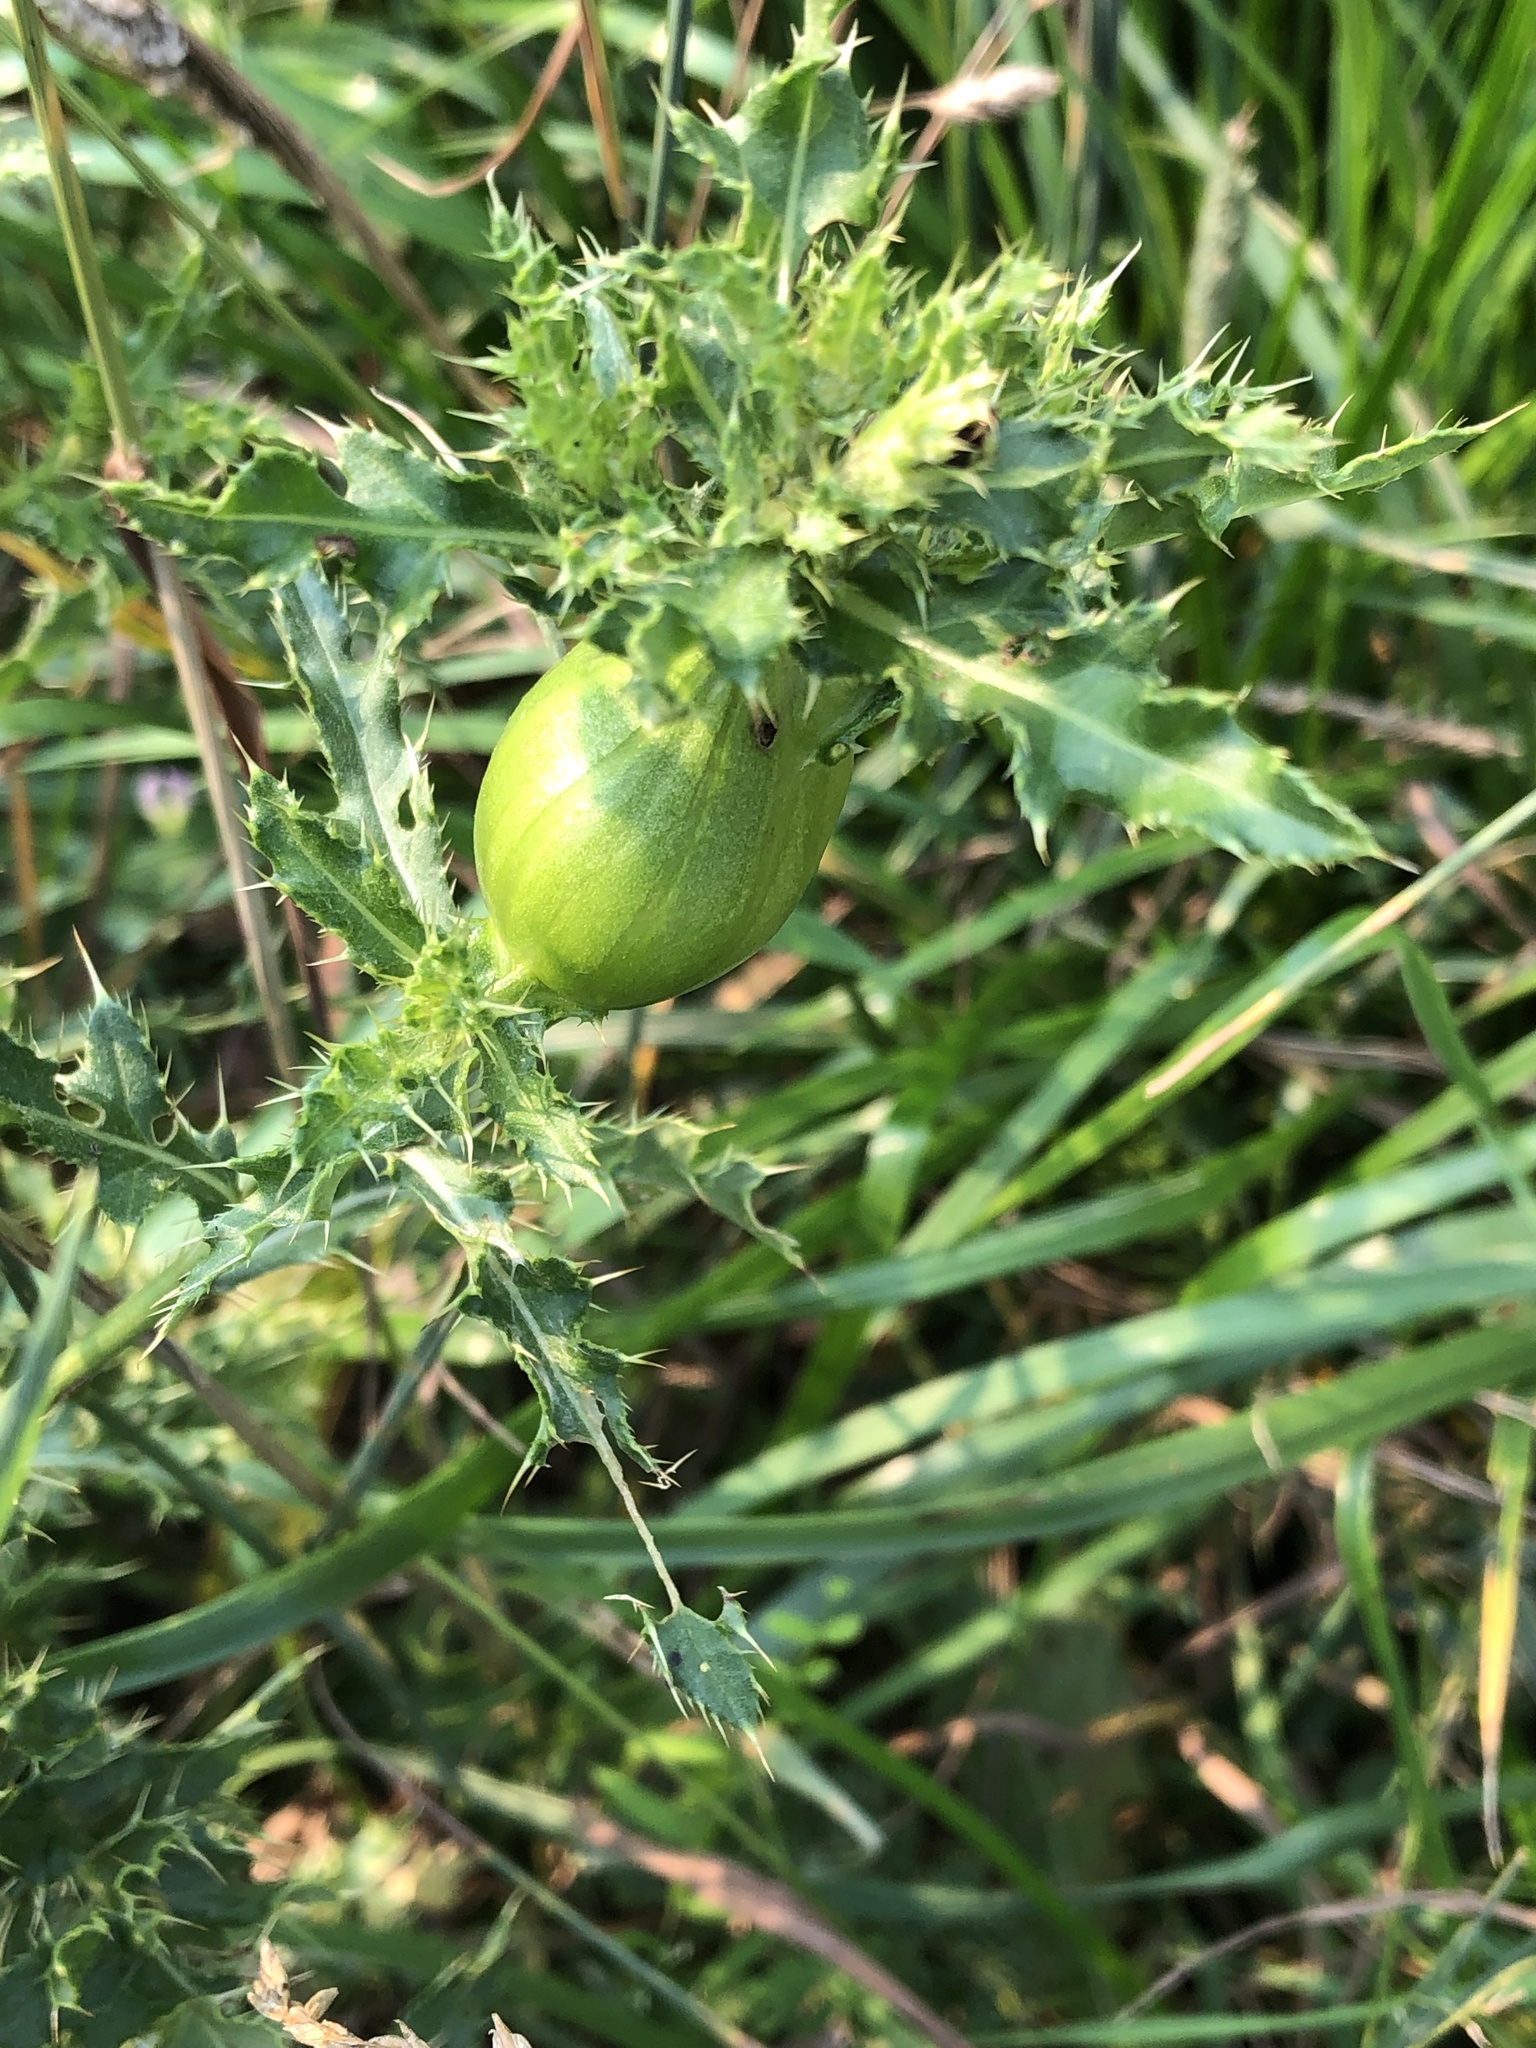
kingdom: Animalia
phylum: Arthropoda
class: Insecta
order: Diptera
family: Tephritidae
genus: Urophora
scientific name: Urophora cardui
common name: Fruit fly
